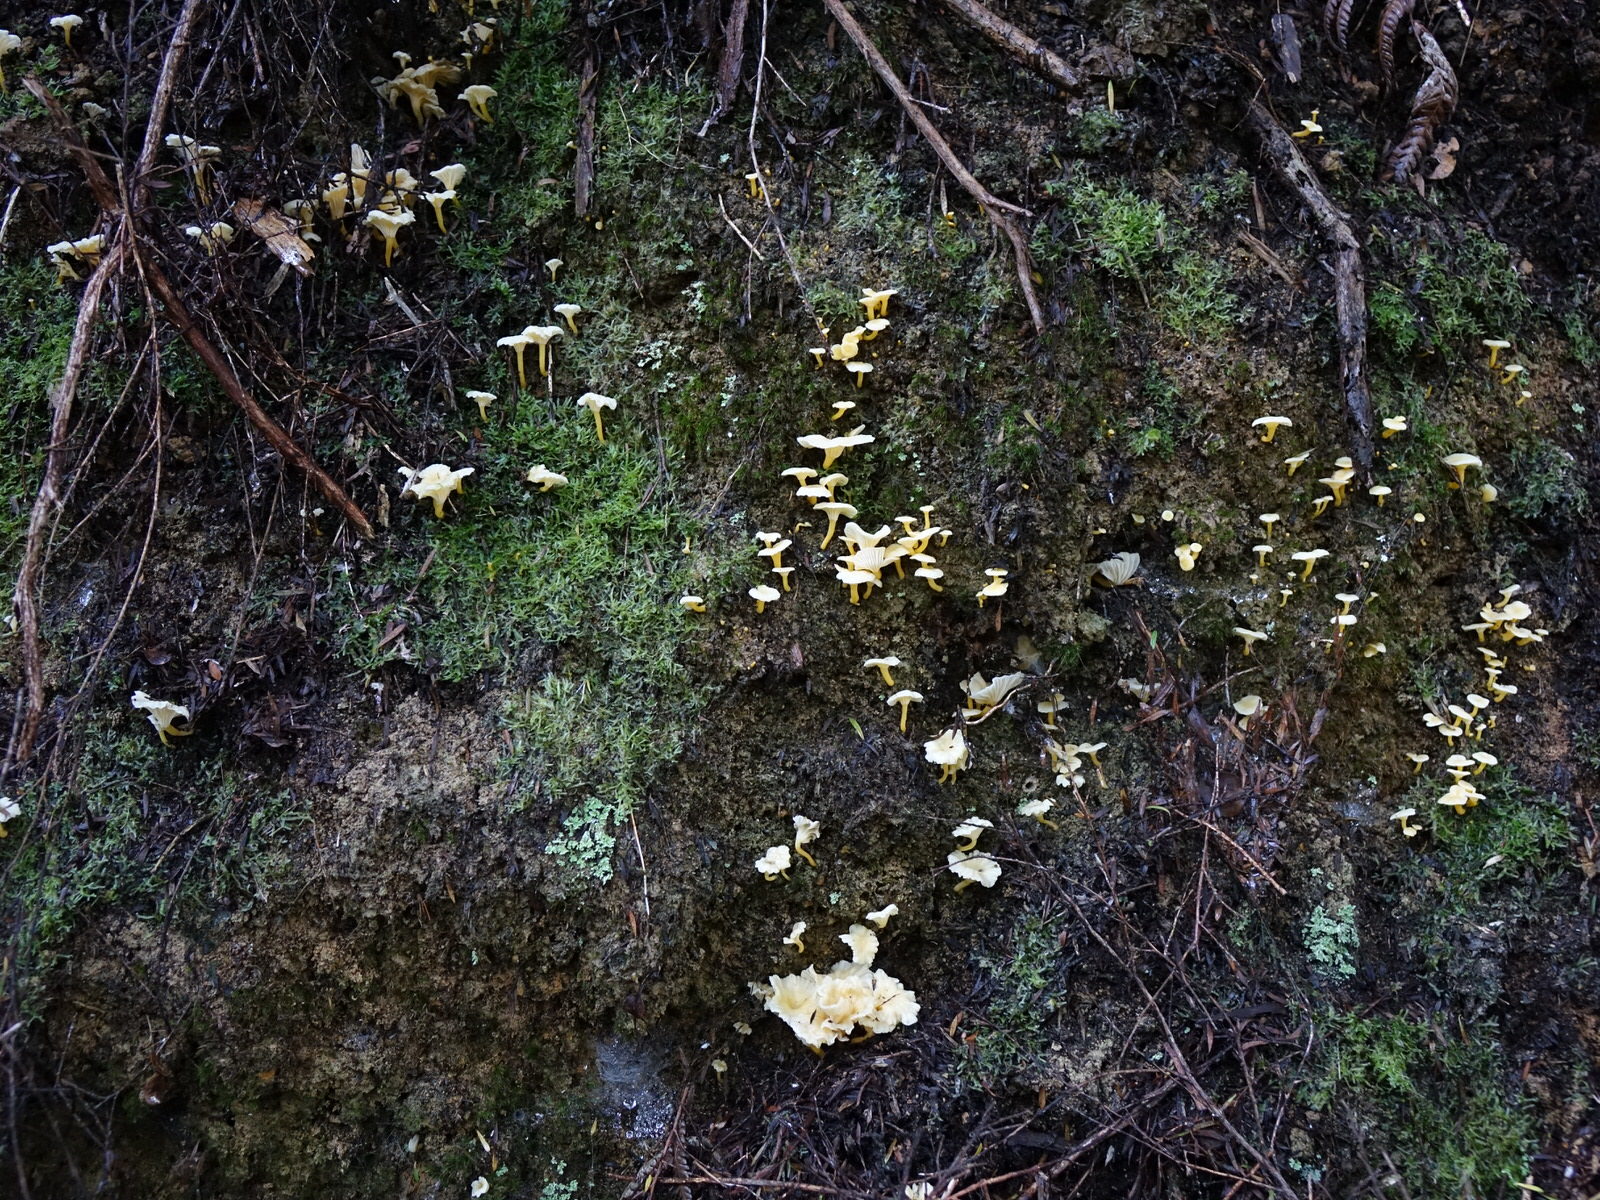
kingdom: Fungi
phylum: Basidiomycota
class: Agaricomycetes
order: Cantharellales
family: Hydnaceae
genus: Cantharellus
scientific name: Cantharellus wellingtonensis
